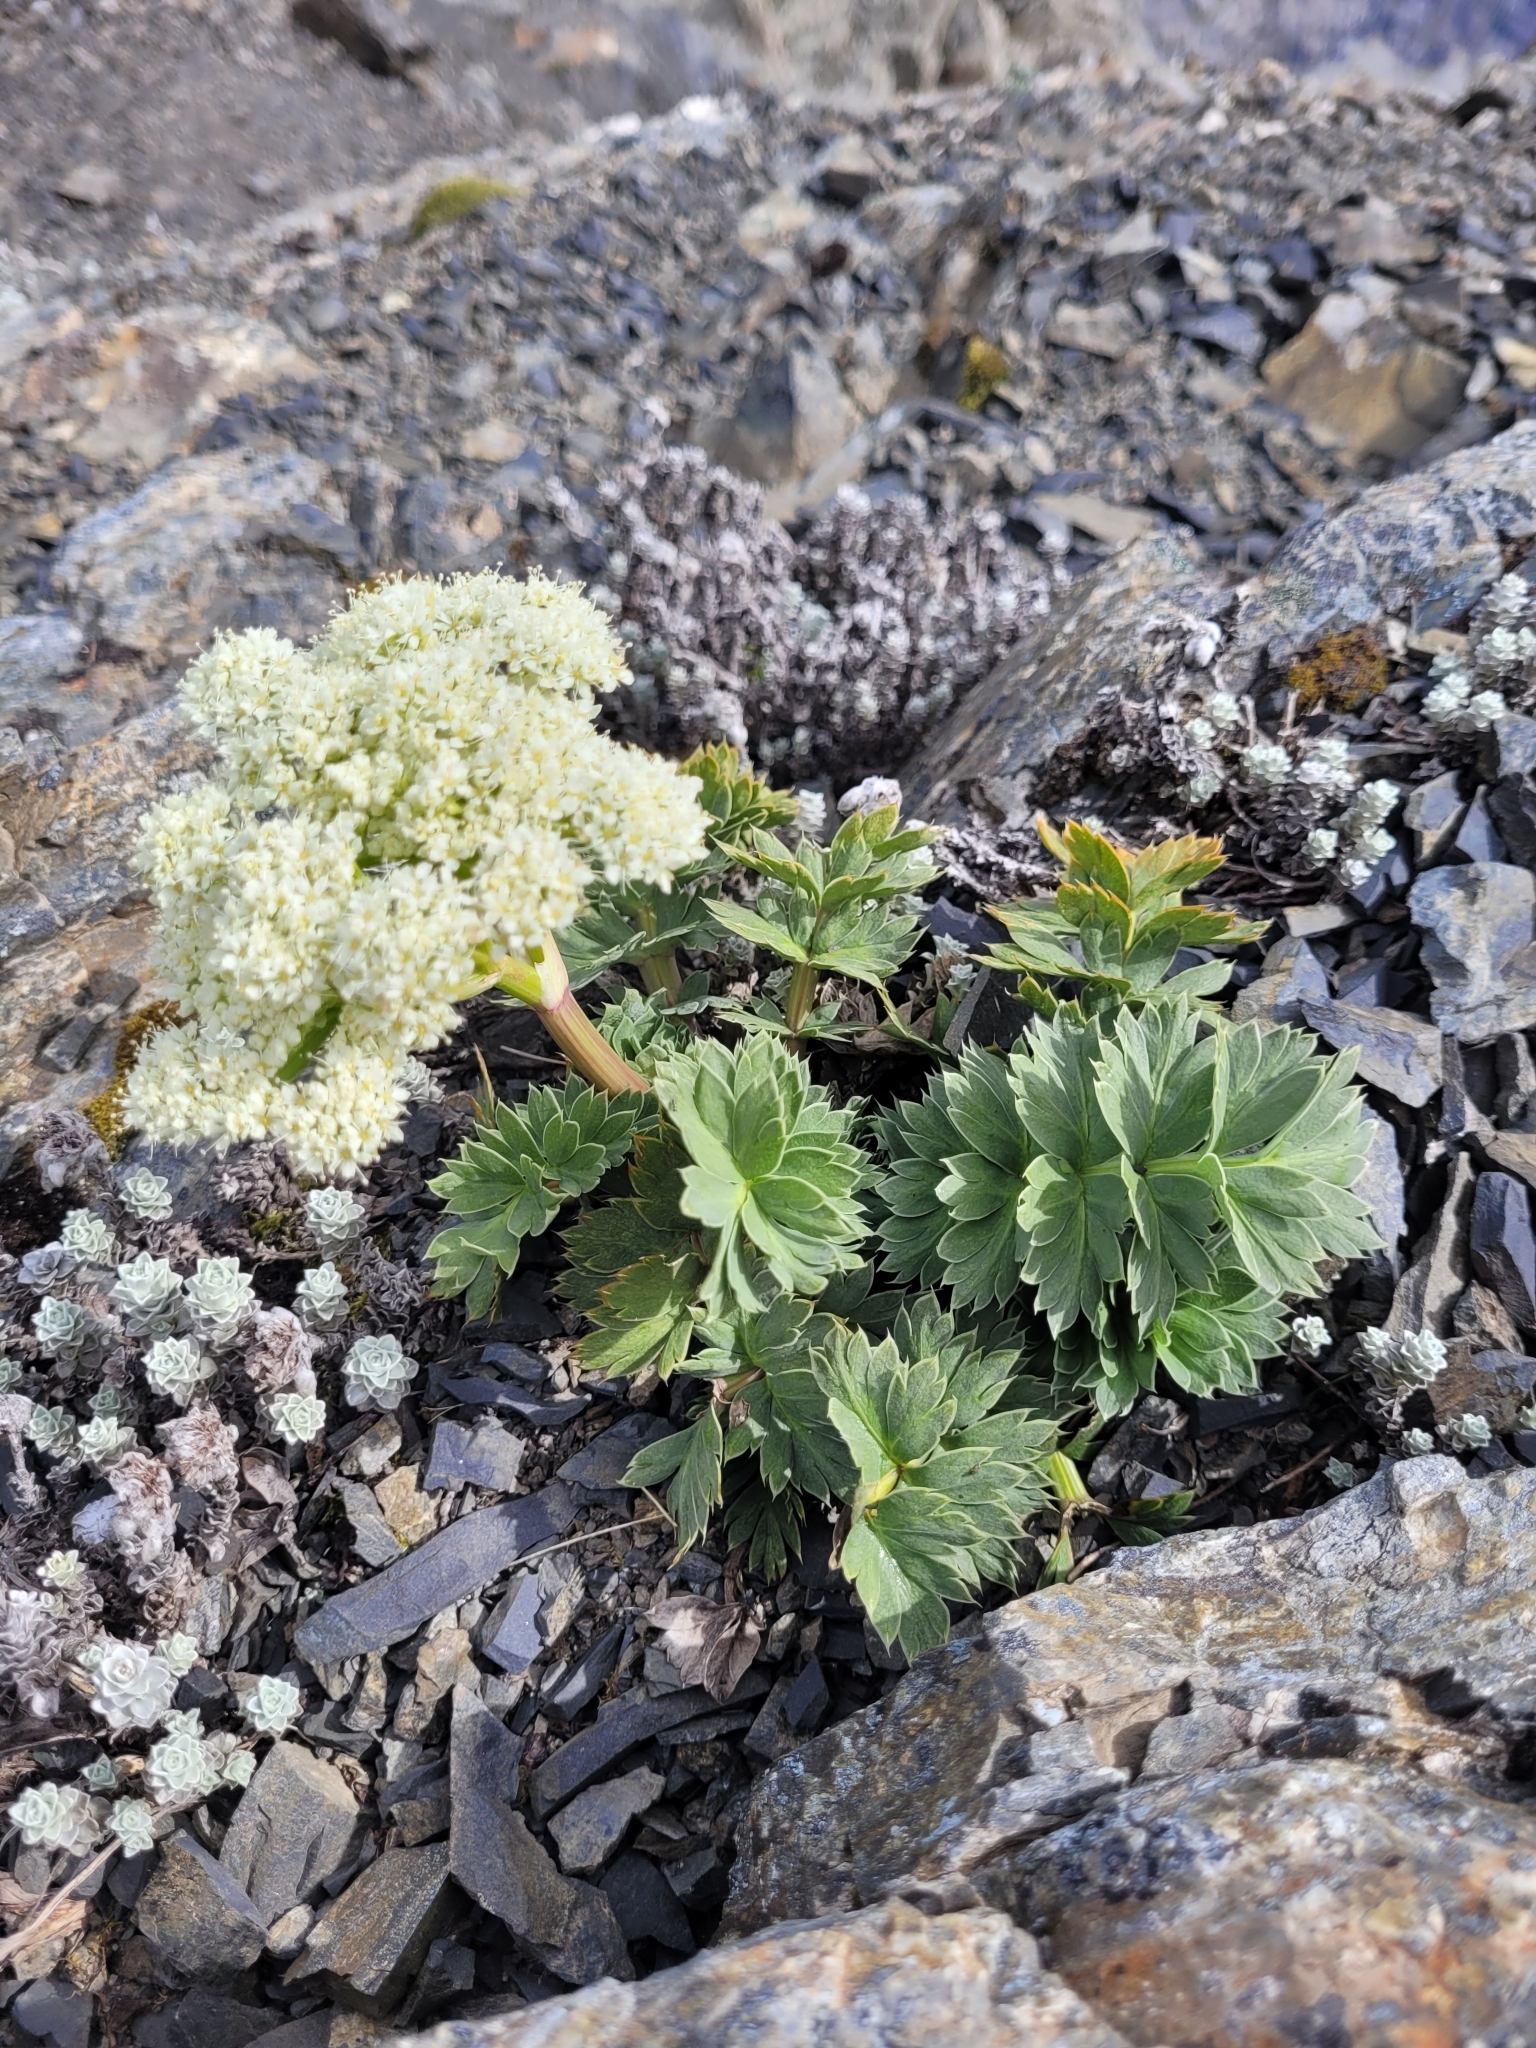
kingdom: Plantae
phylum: Tracheophyta
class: Magnoliopsida
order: Apiales
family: Apiaceae
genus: Anisotome
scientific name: Anisotome pilifera
